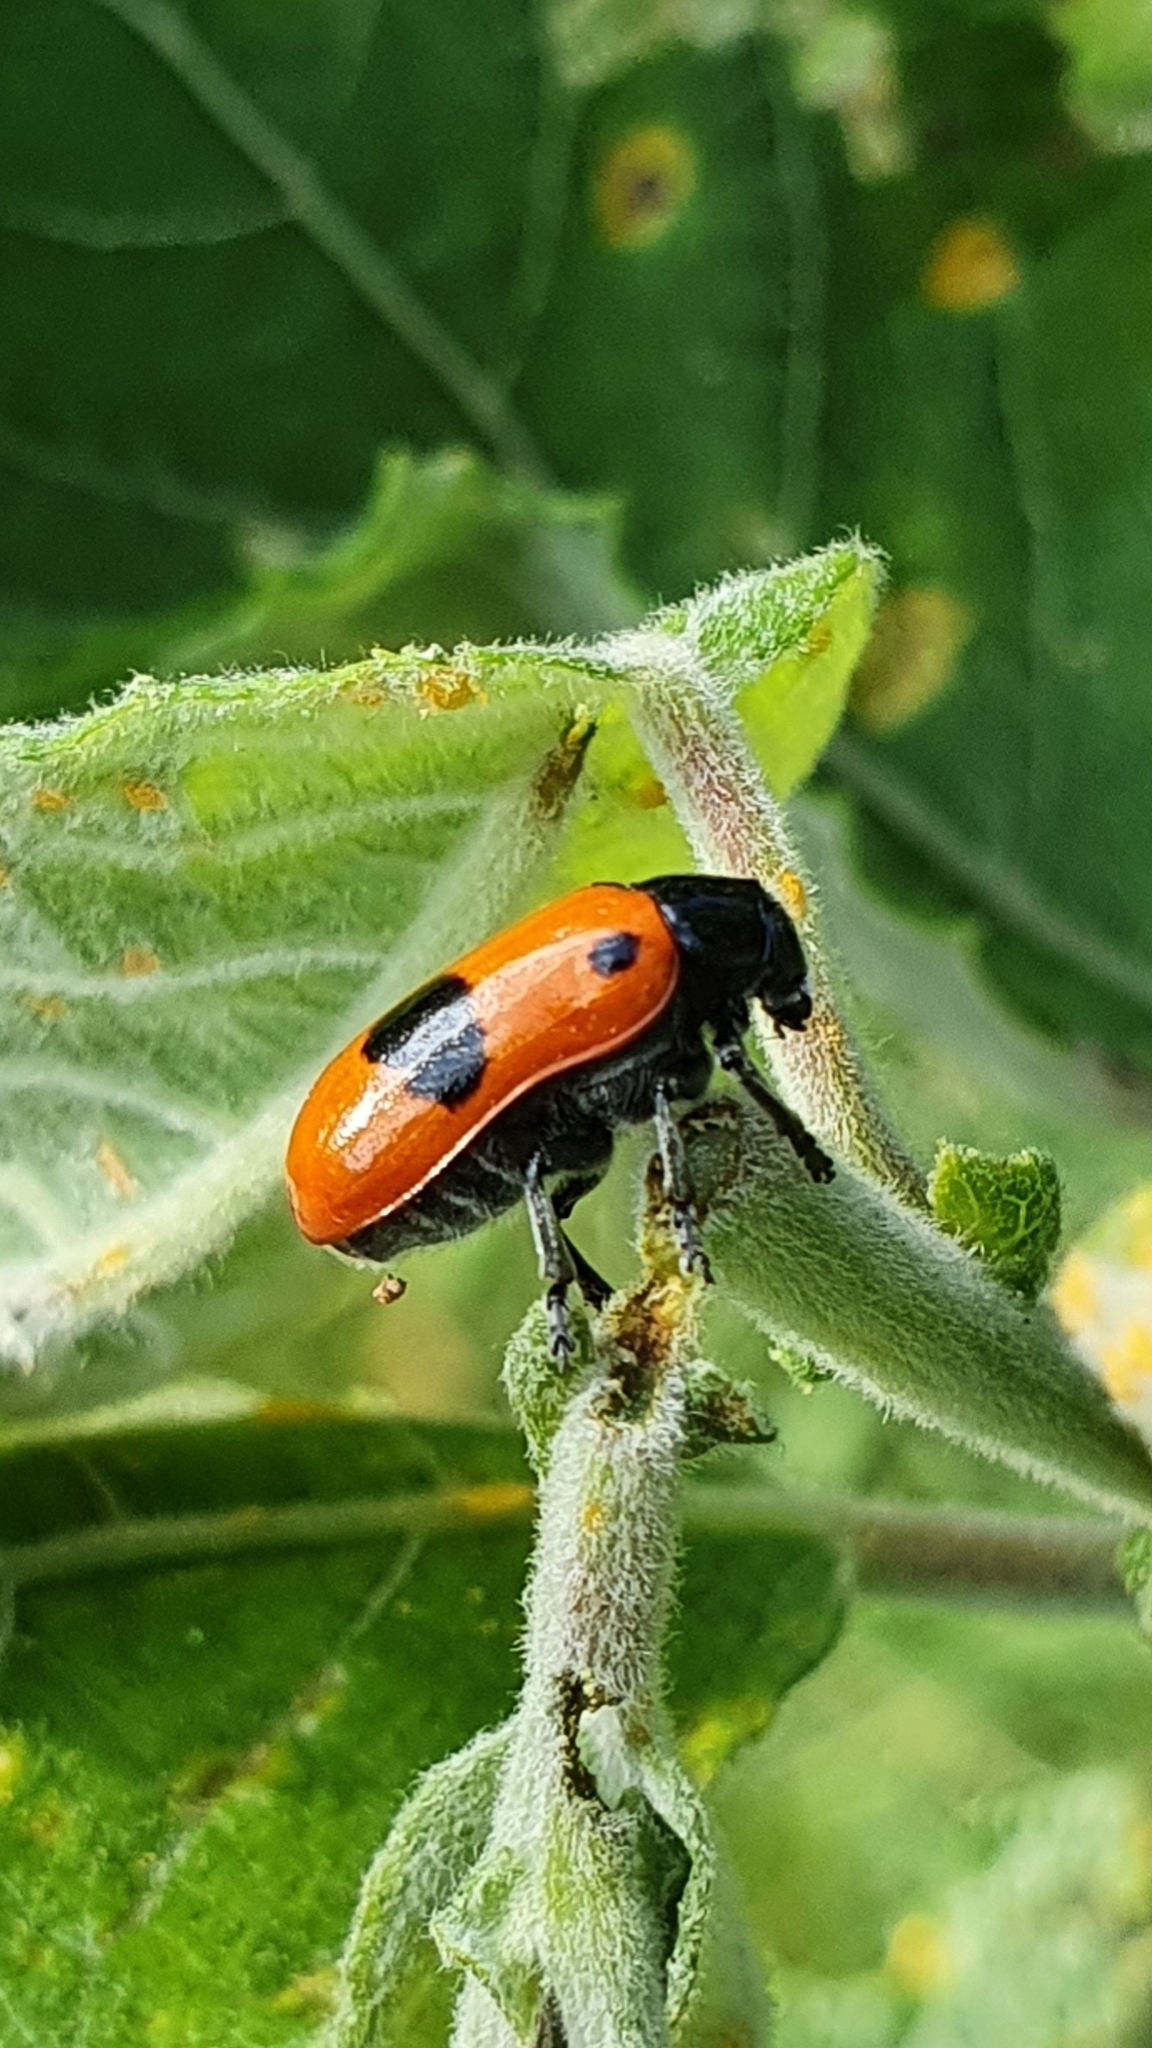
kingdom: Animalia
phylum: Arthropoda
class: Insecta
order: Coleoptera
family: Chrysomelidae
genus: Clytra
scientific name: Clytra laeviuscula
